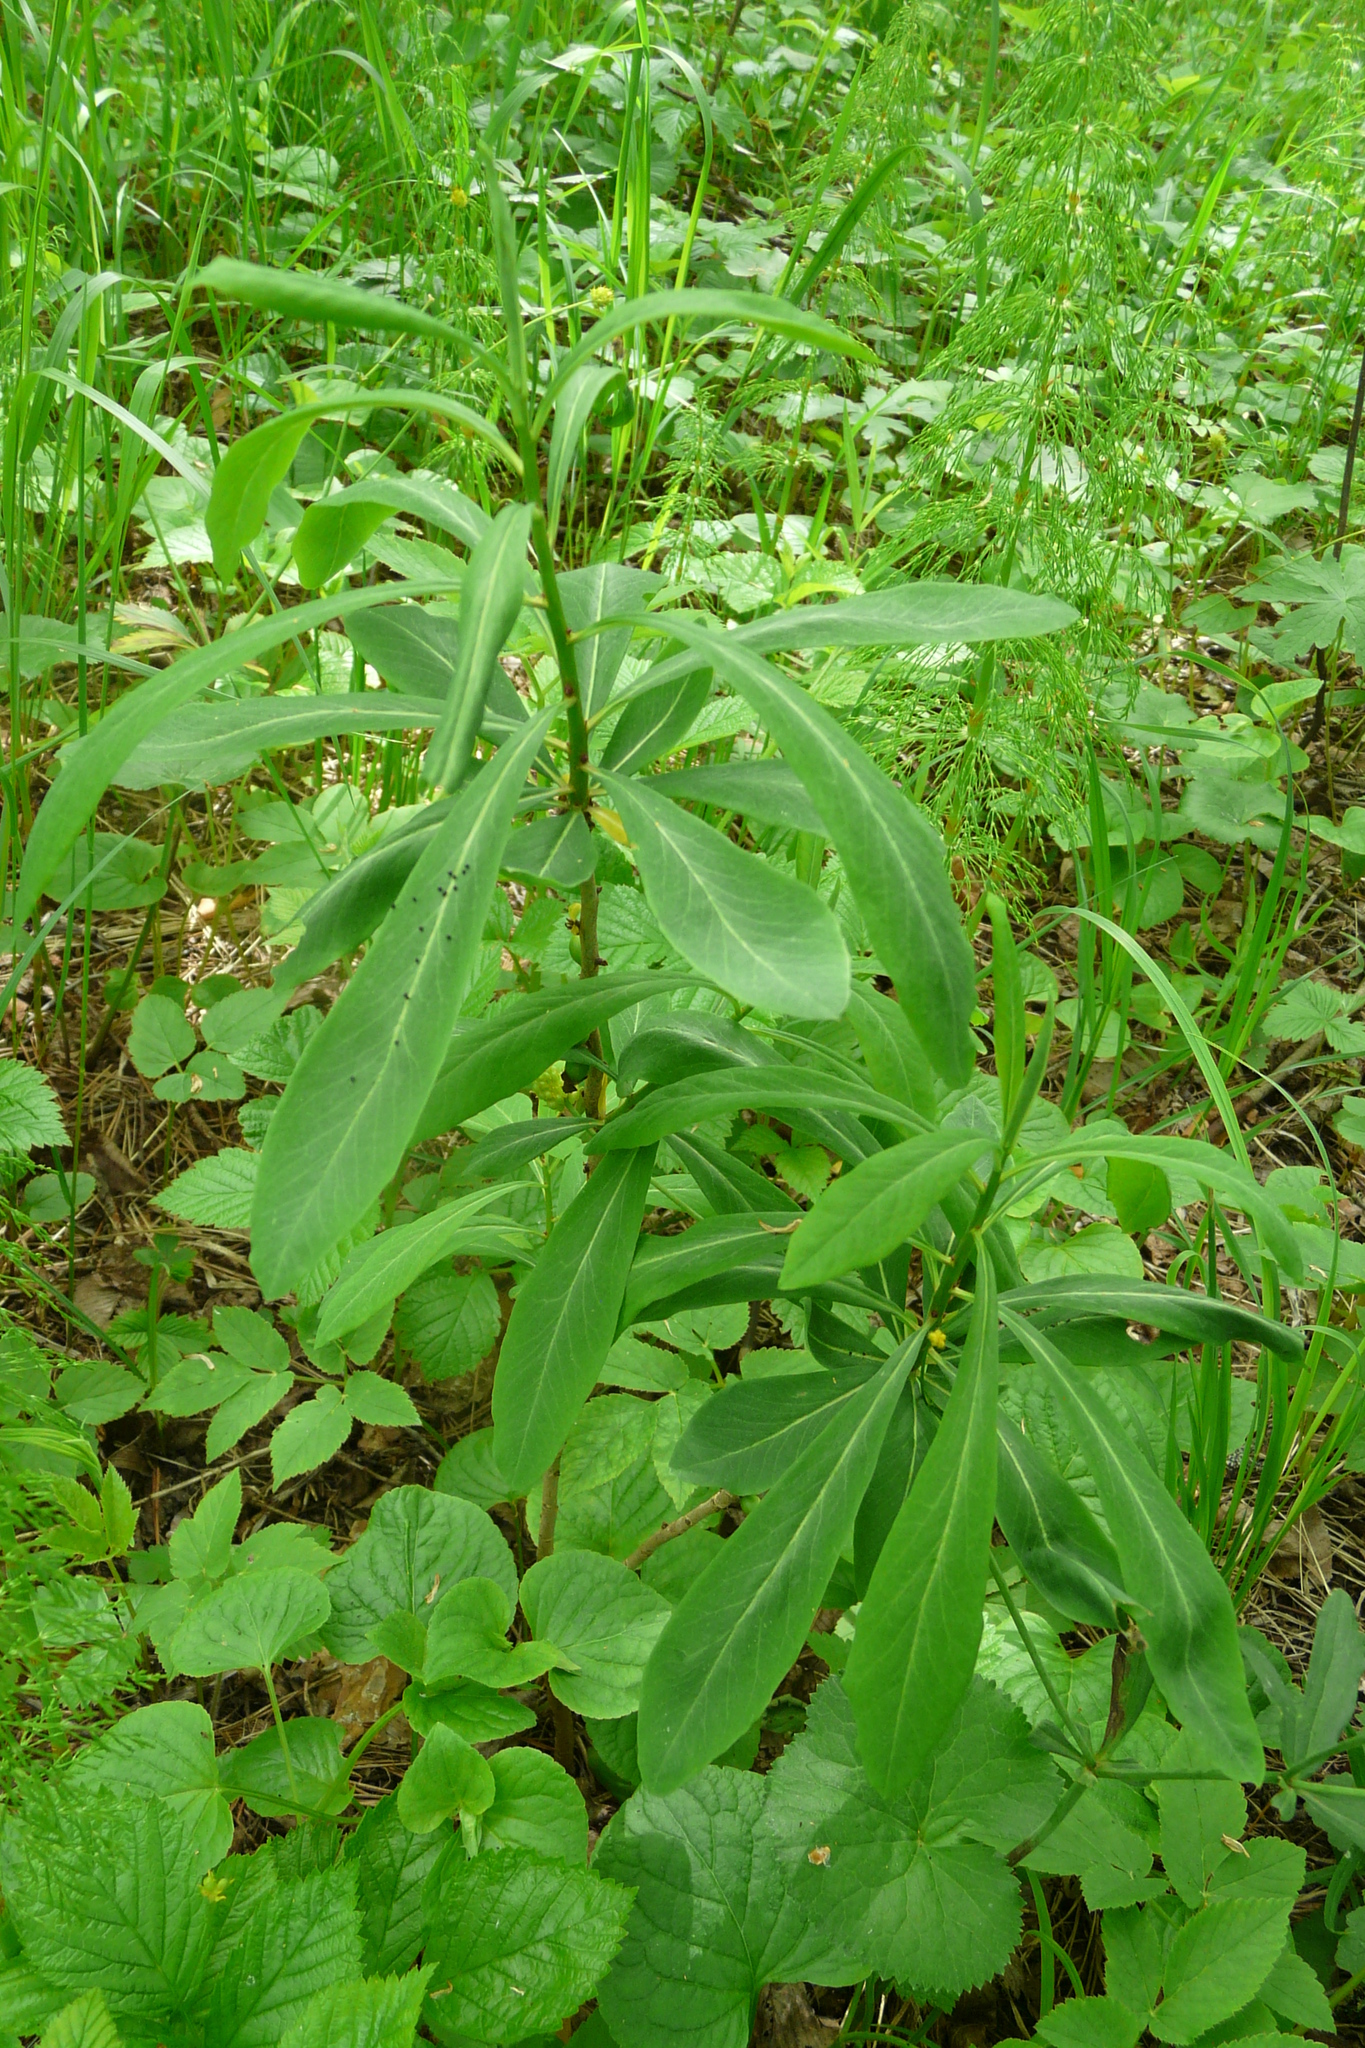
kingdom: Plantae
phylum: Tracheophyta
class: Magnoliopsida
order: Malvales
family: Thymelaeaceae
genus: Daphne
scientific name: Daphne mezereum
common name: Mezereon
